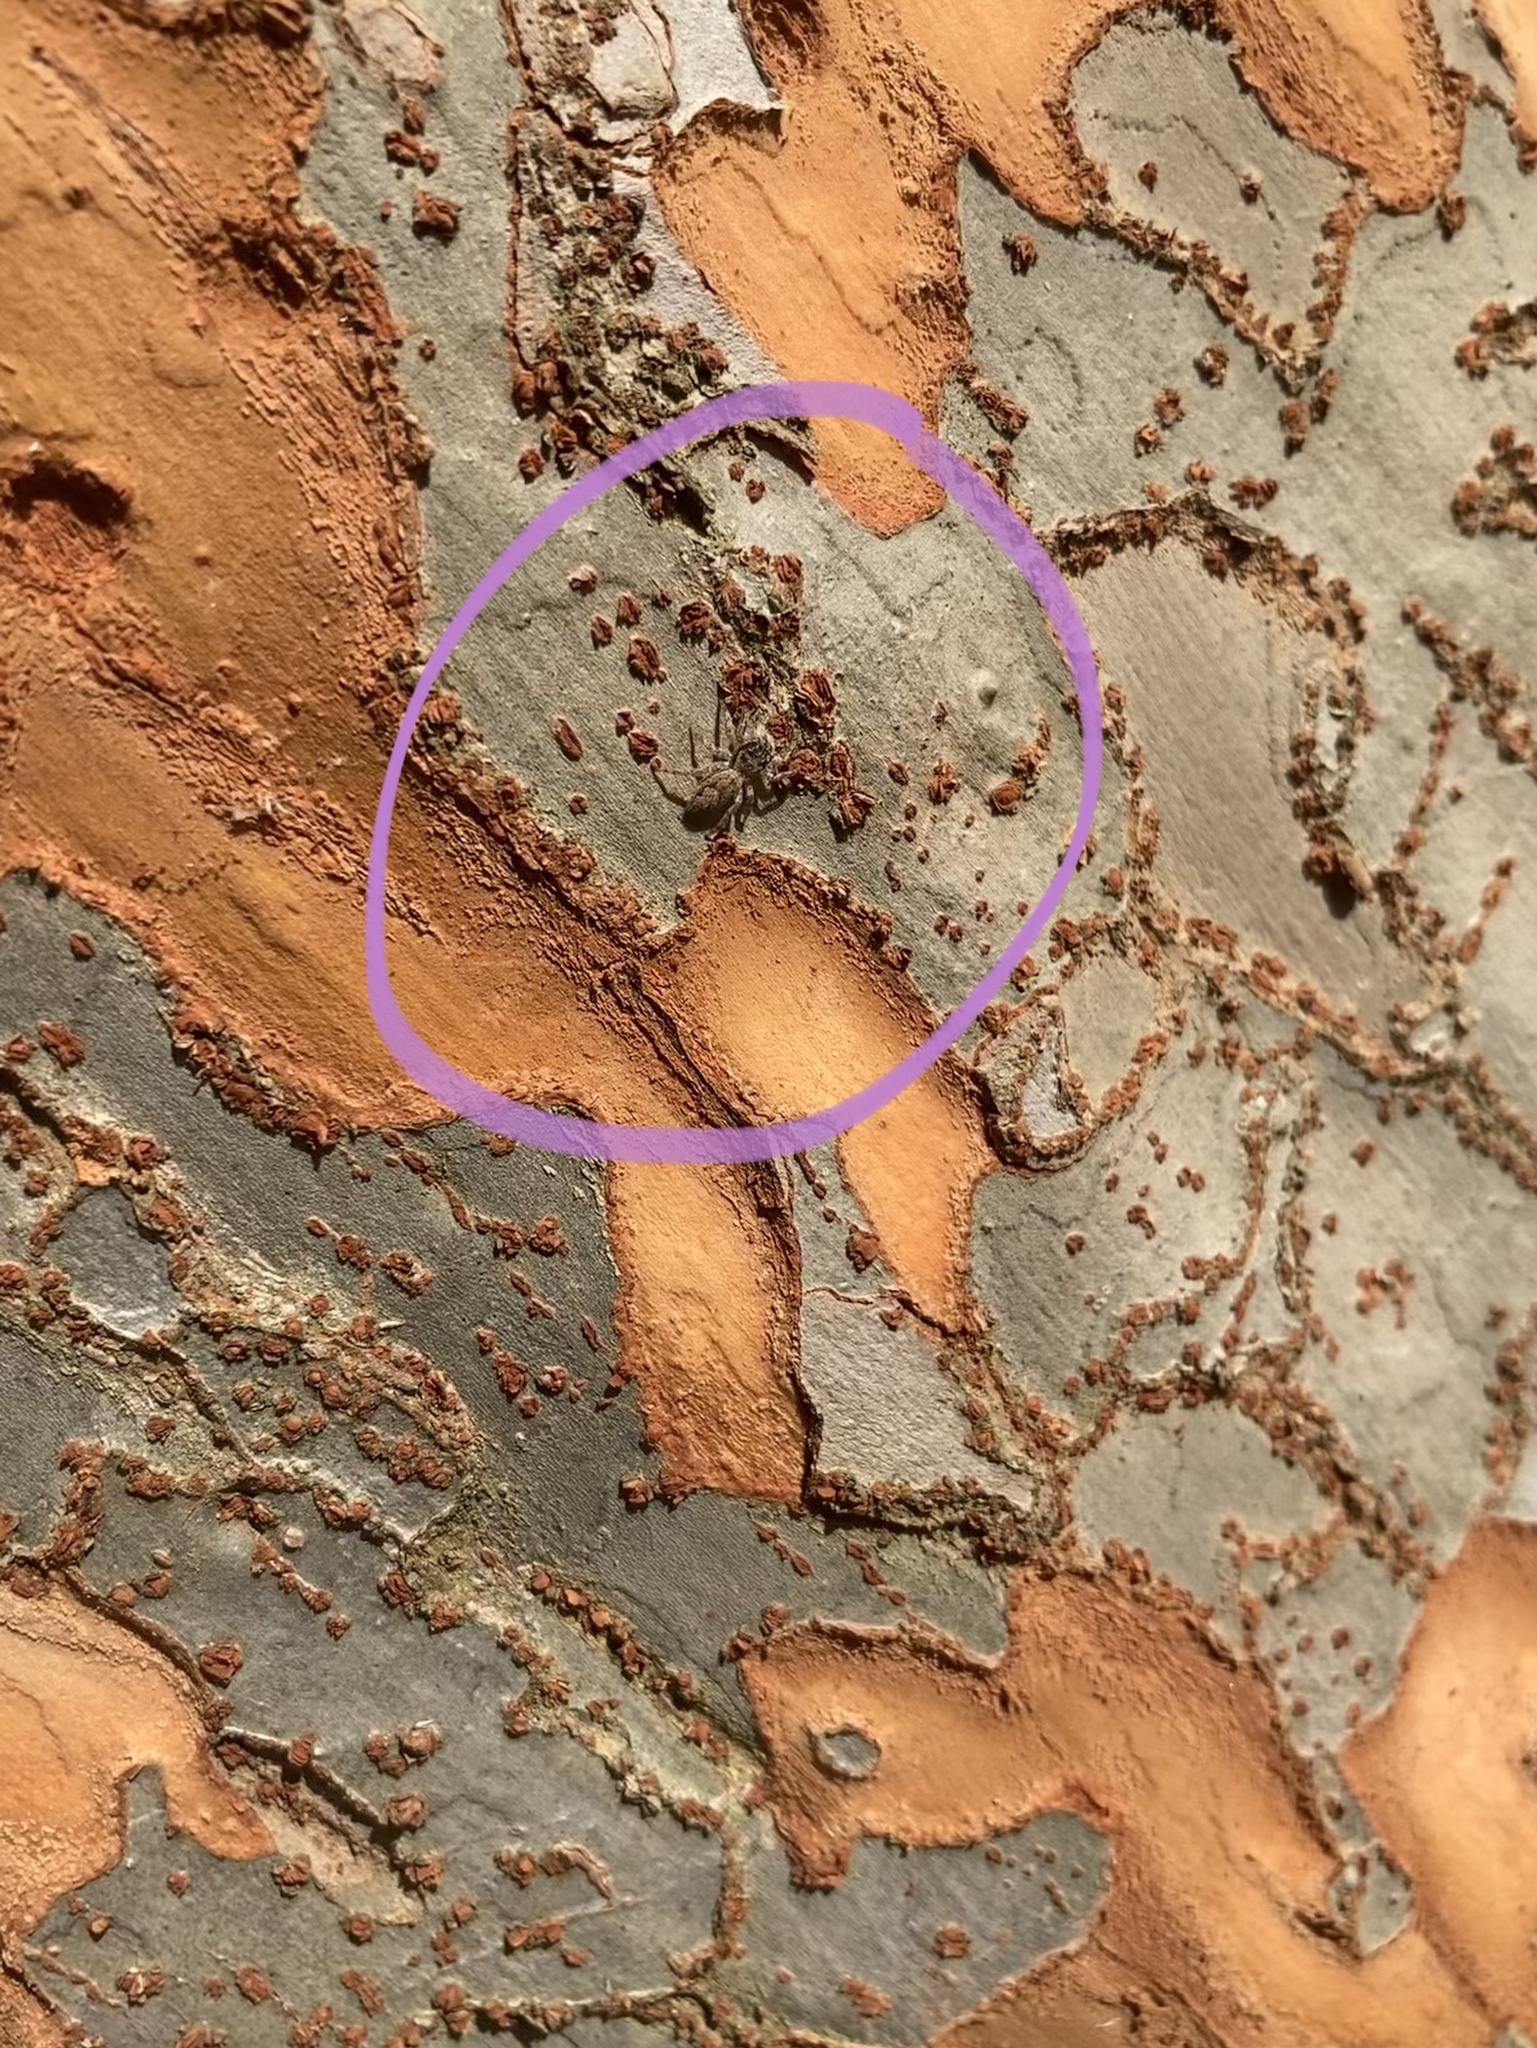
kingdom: Animalia
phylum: Arthropoda
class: Arachnida
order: Araneae
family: Salticidae
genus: Platycryptus
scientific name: Platycryptus undatus
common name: Tan jumping spider
